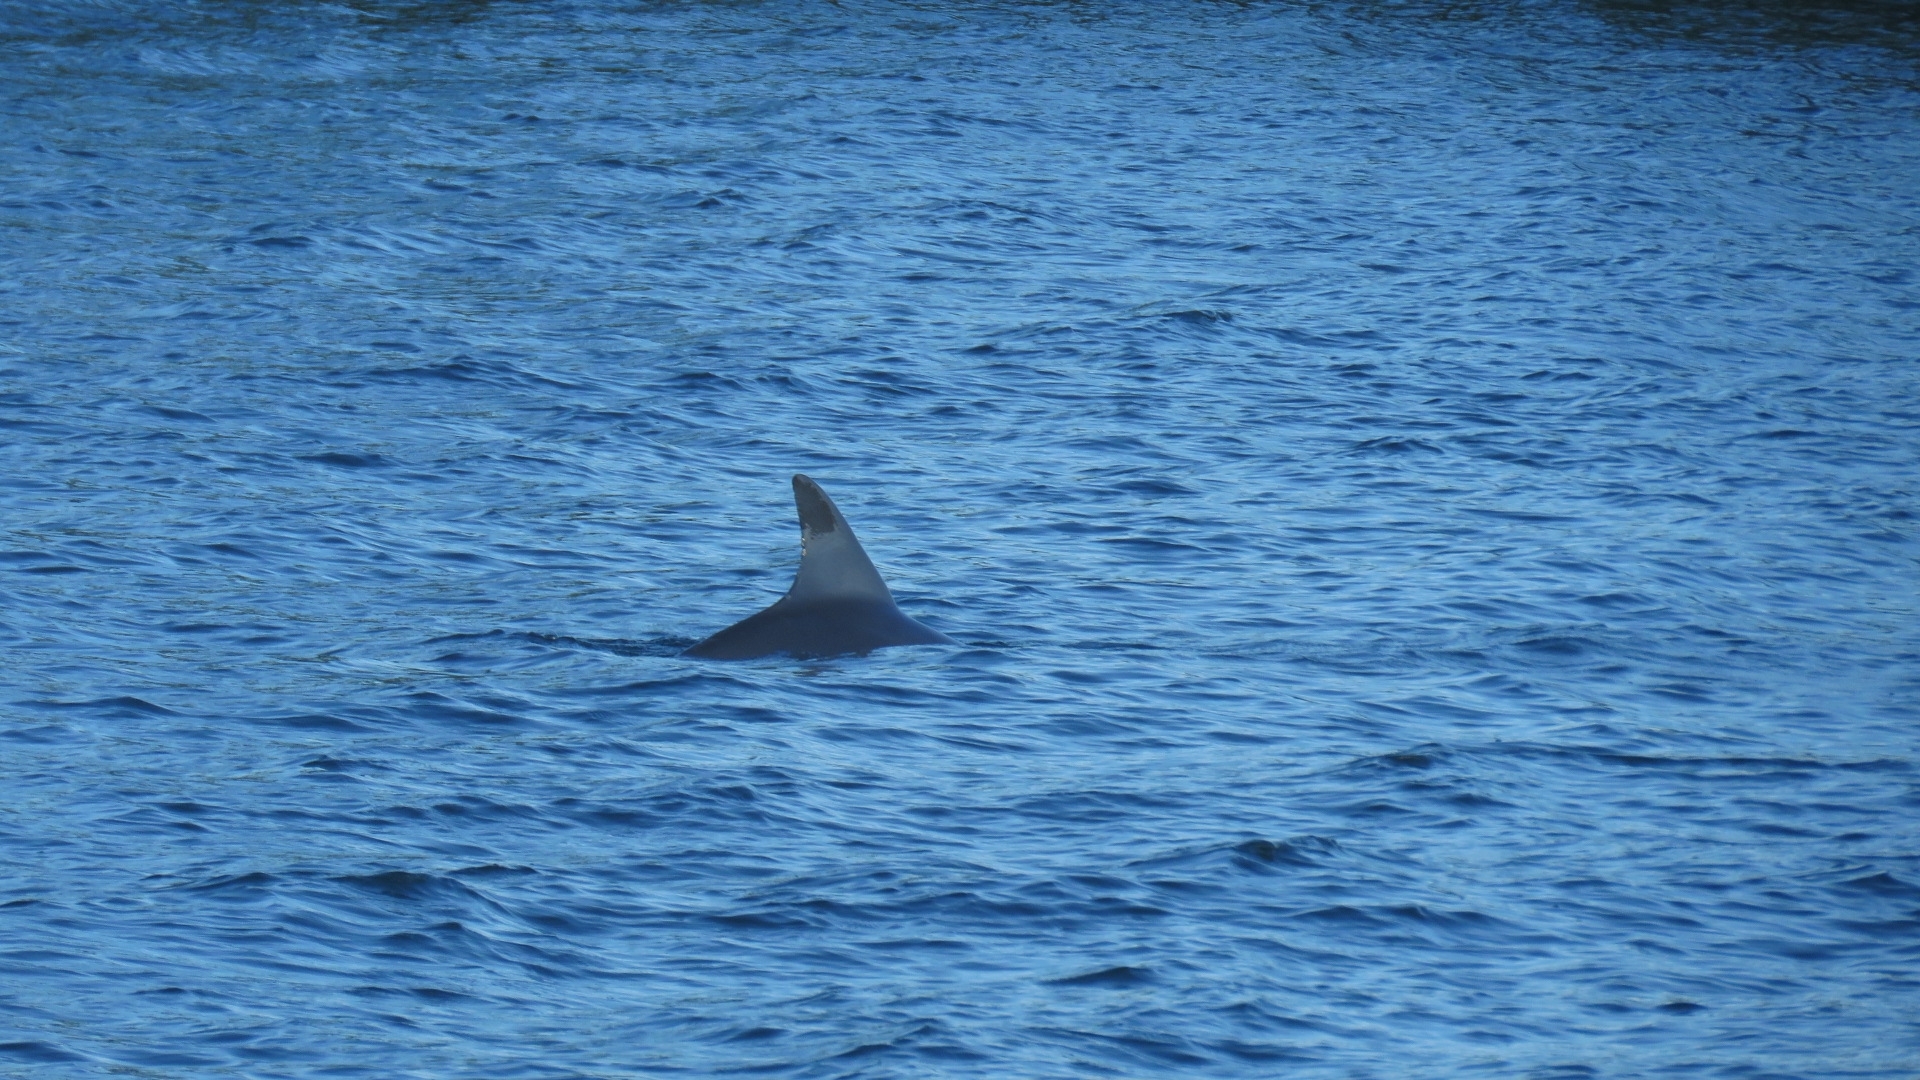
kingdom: Animalia
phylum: Chordata
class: Mammalia
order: Cetacea
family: Delphinidae
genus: Tursiops
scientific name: Tursiops truncatus
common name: Bottlenose dolphin
